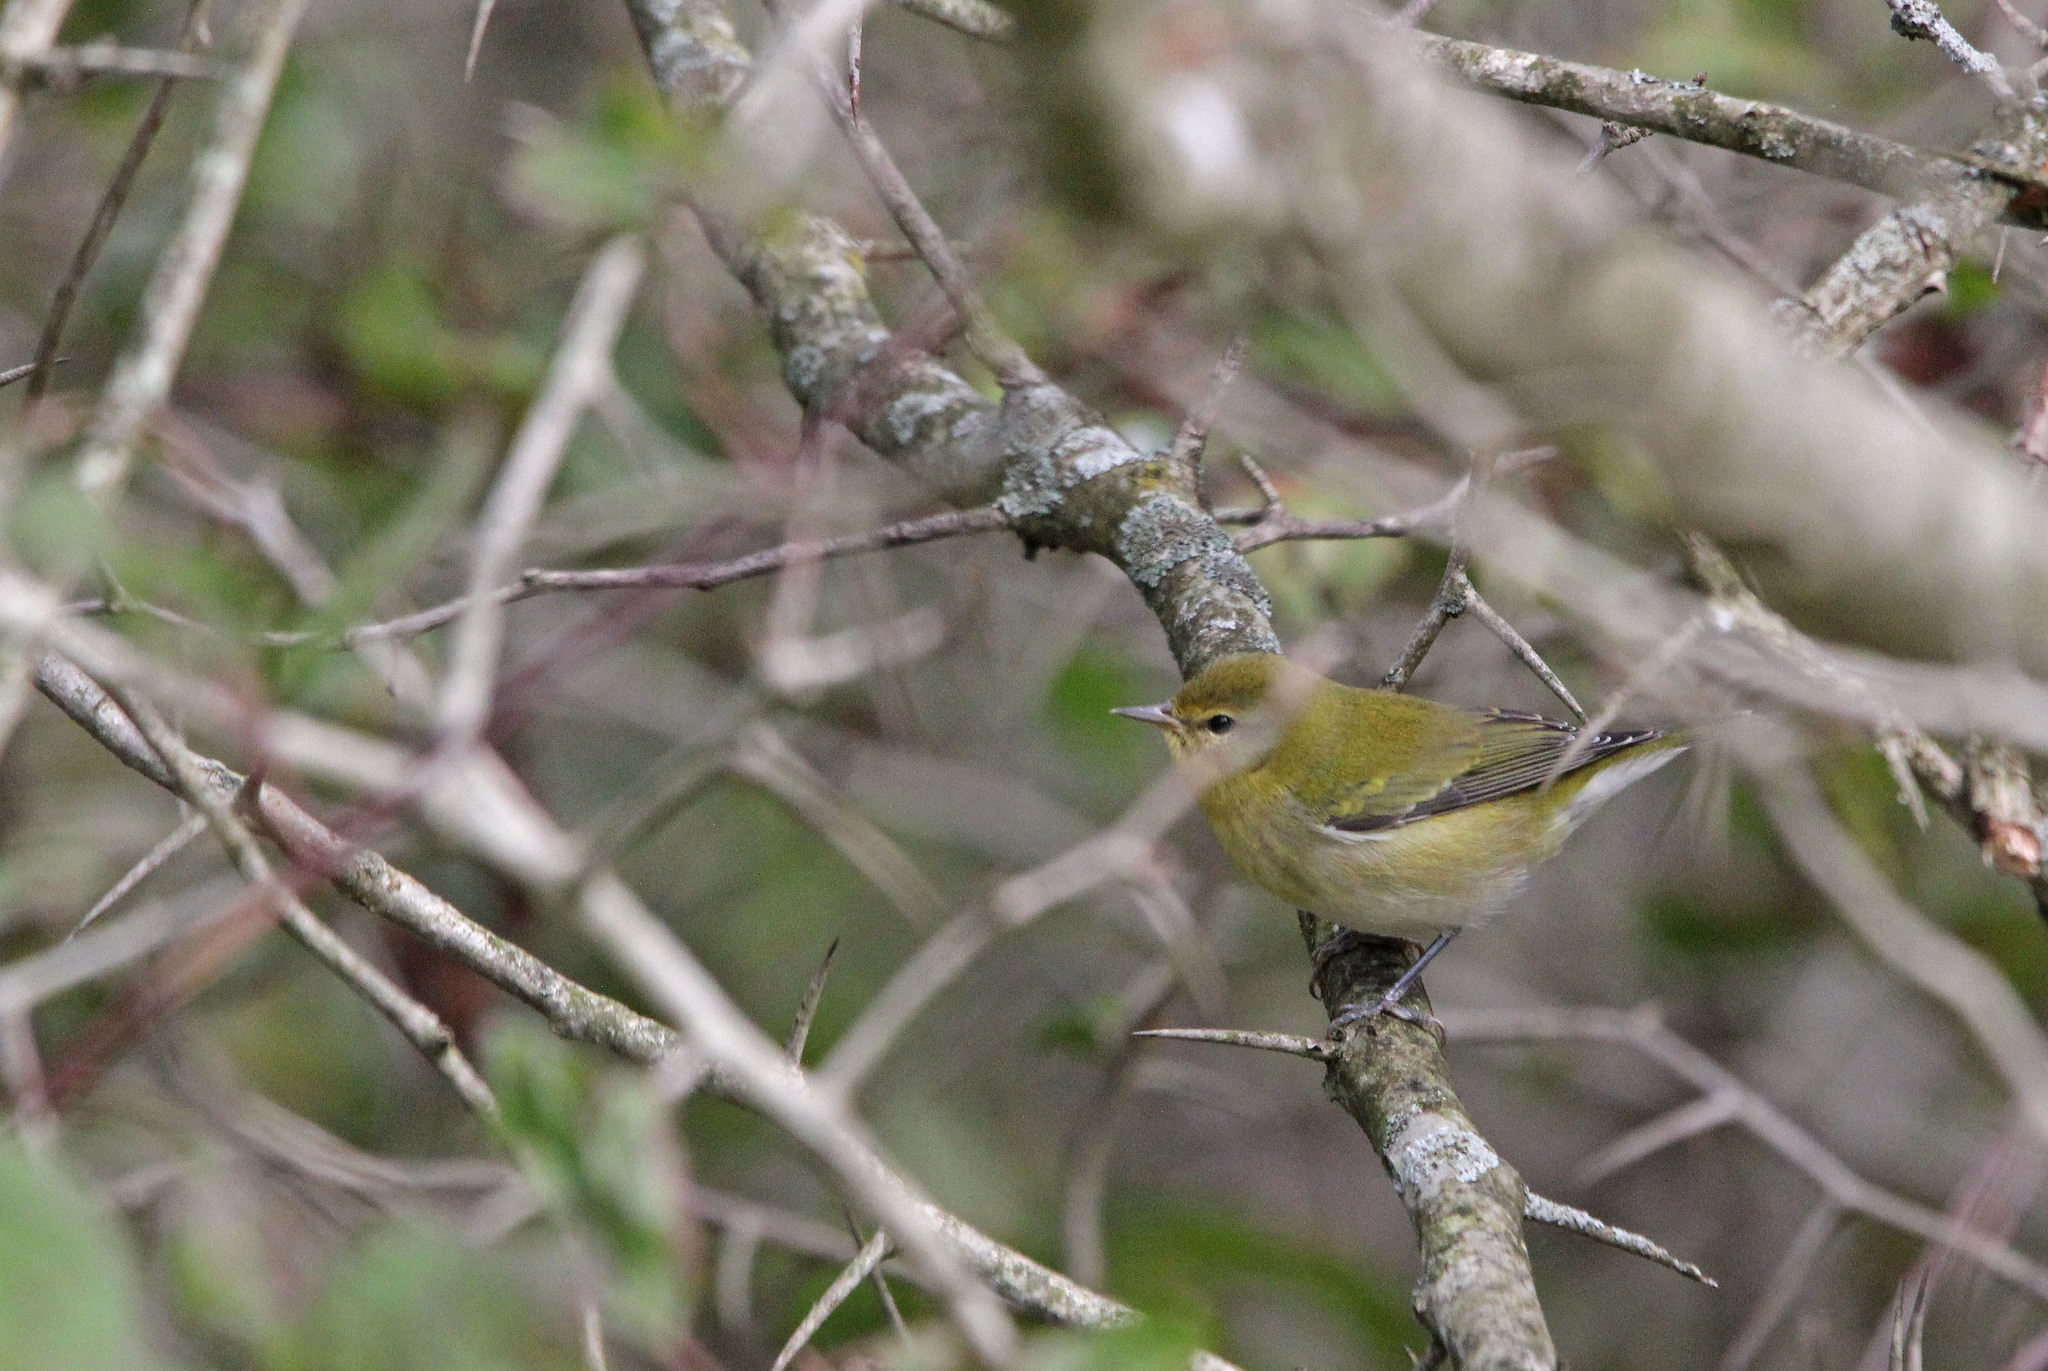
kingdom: Animalia
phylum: Chordata
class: Aves
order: Passeriformes
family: Parulidae
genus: Leiothlypis
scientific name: Leiothlypis peregrina
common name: Tennessee warbler
